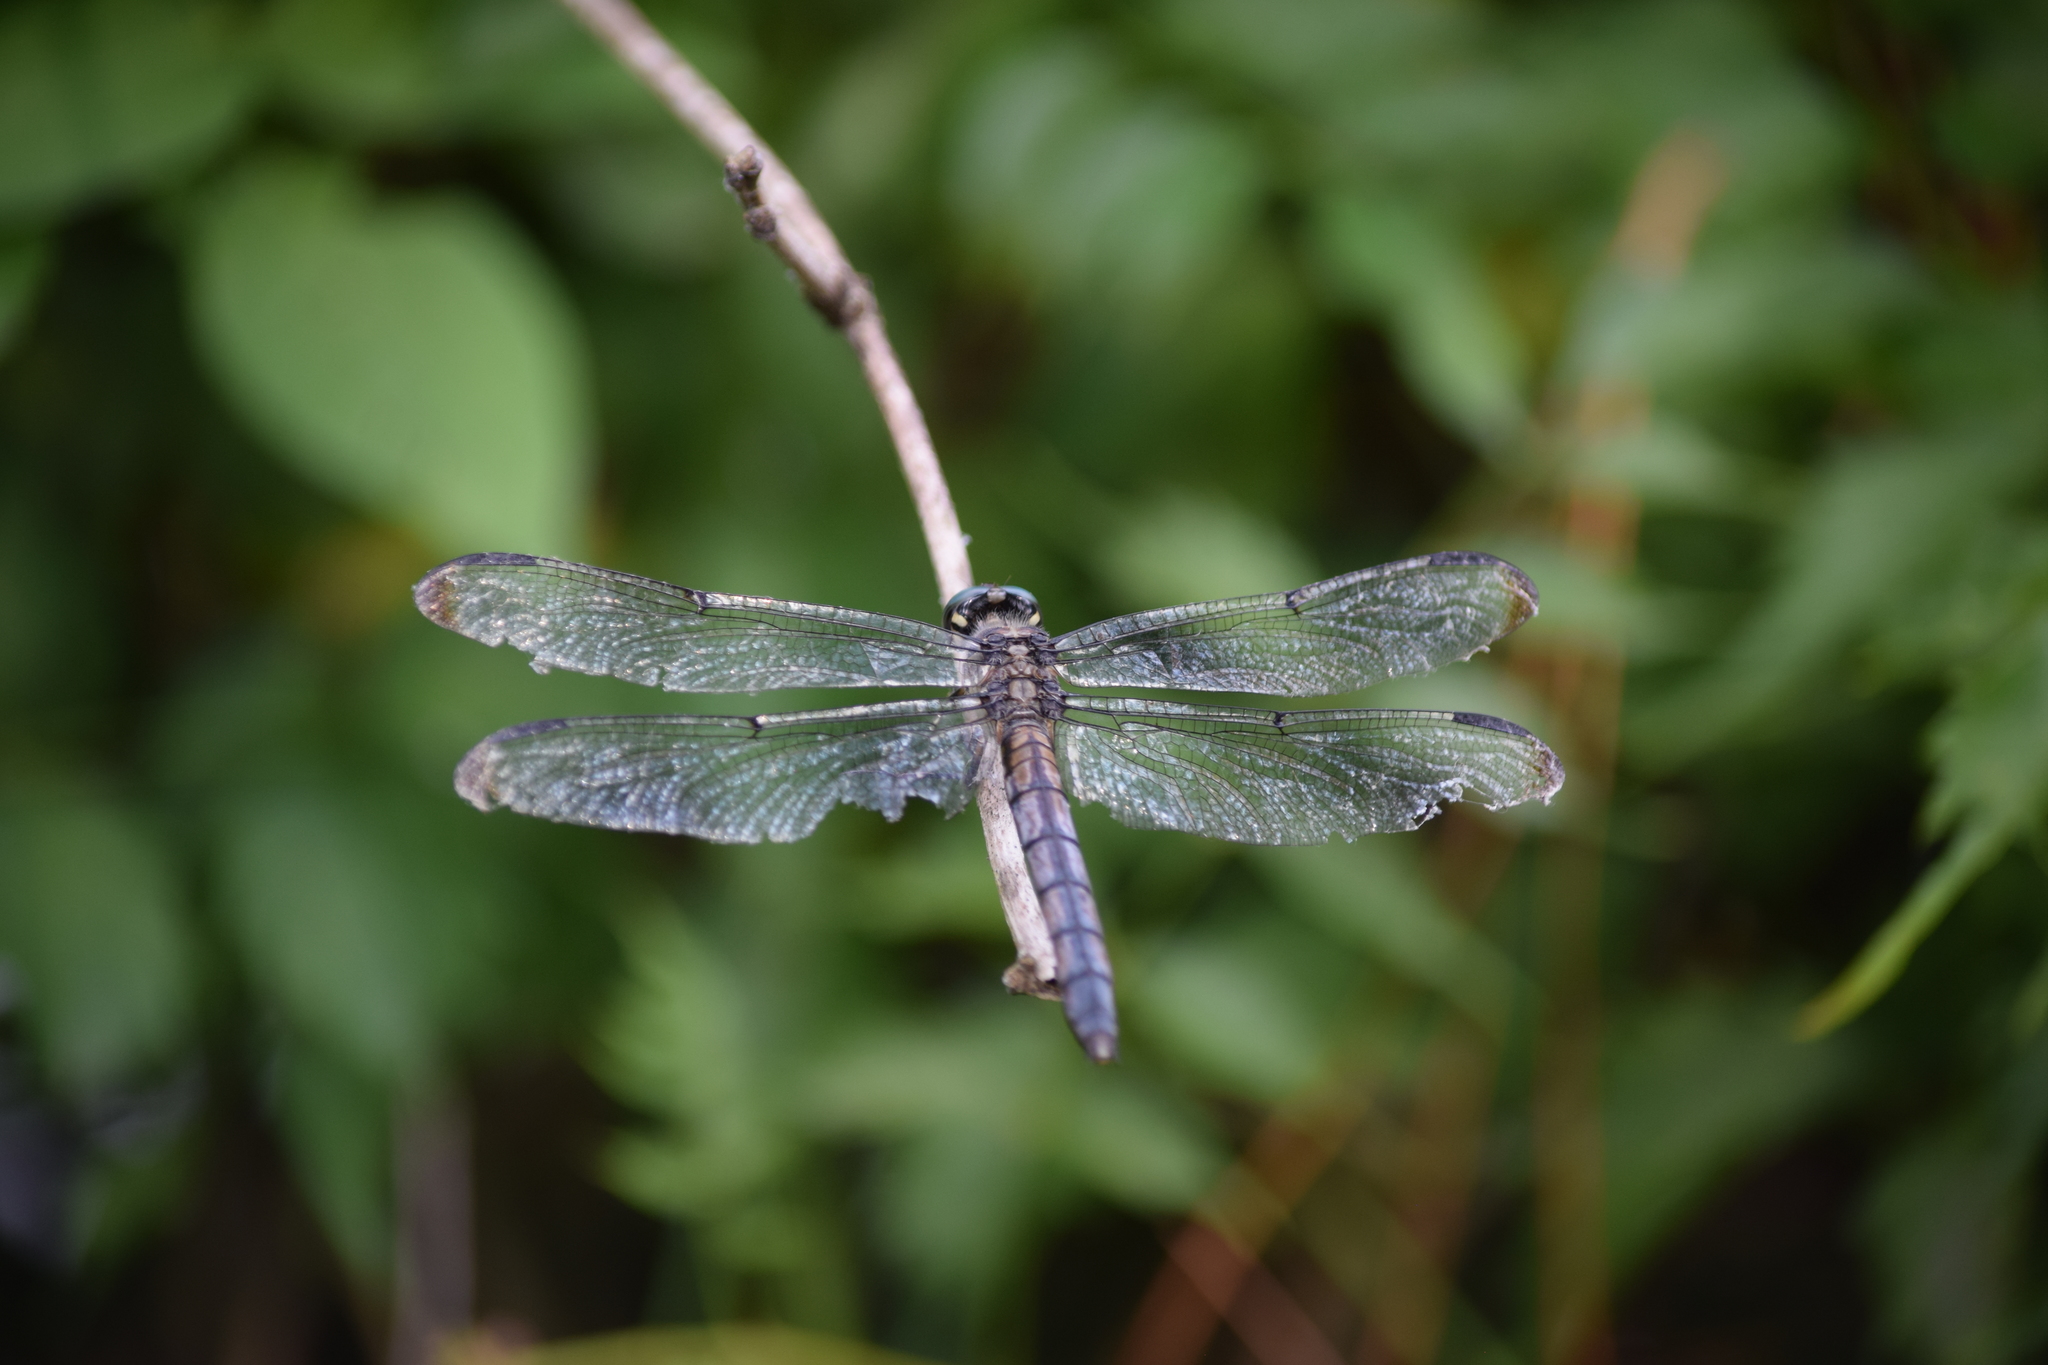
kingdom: Animalia
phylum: Arthropoda
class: Insecta
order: Odonata
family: Libellulidae
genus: Libellula
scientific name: Libellula vibrans
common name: Great blue skimmer
